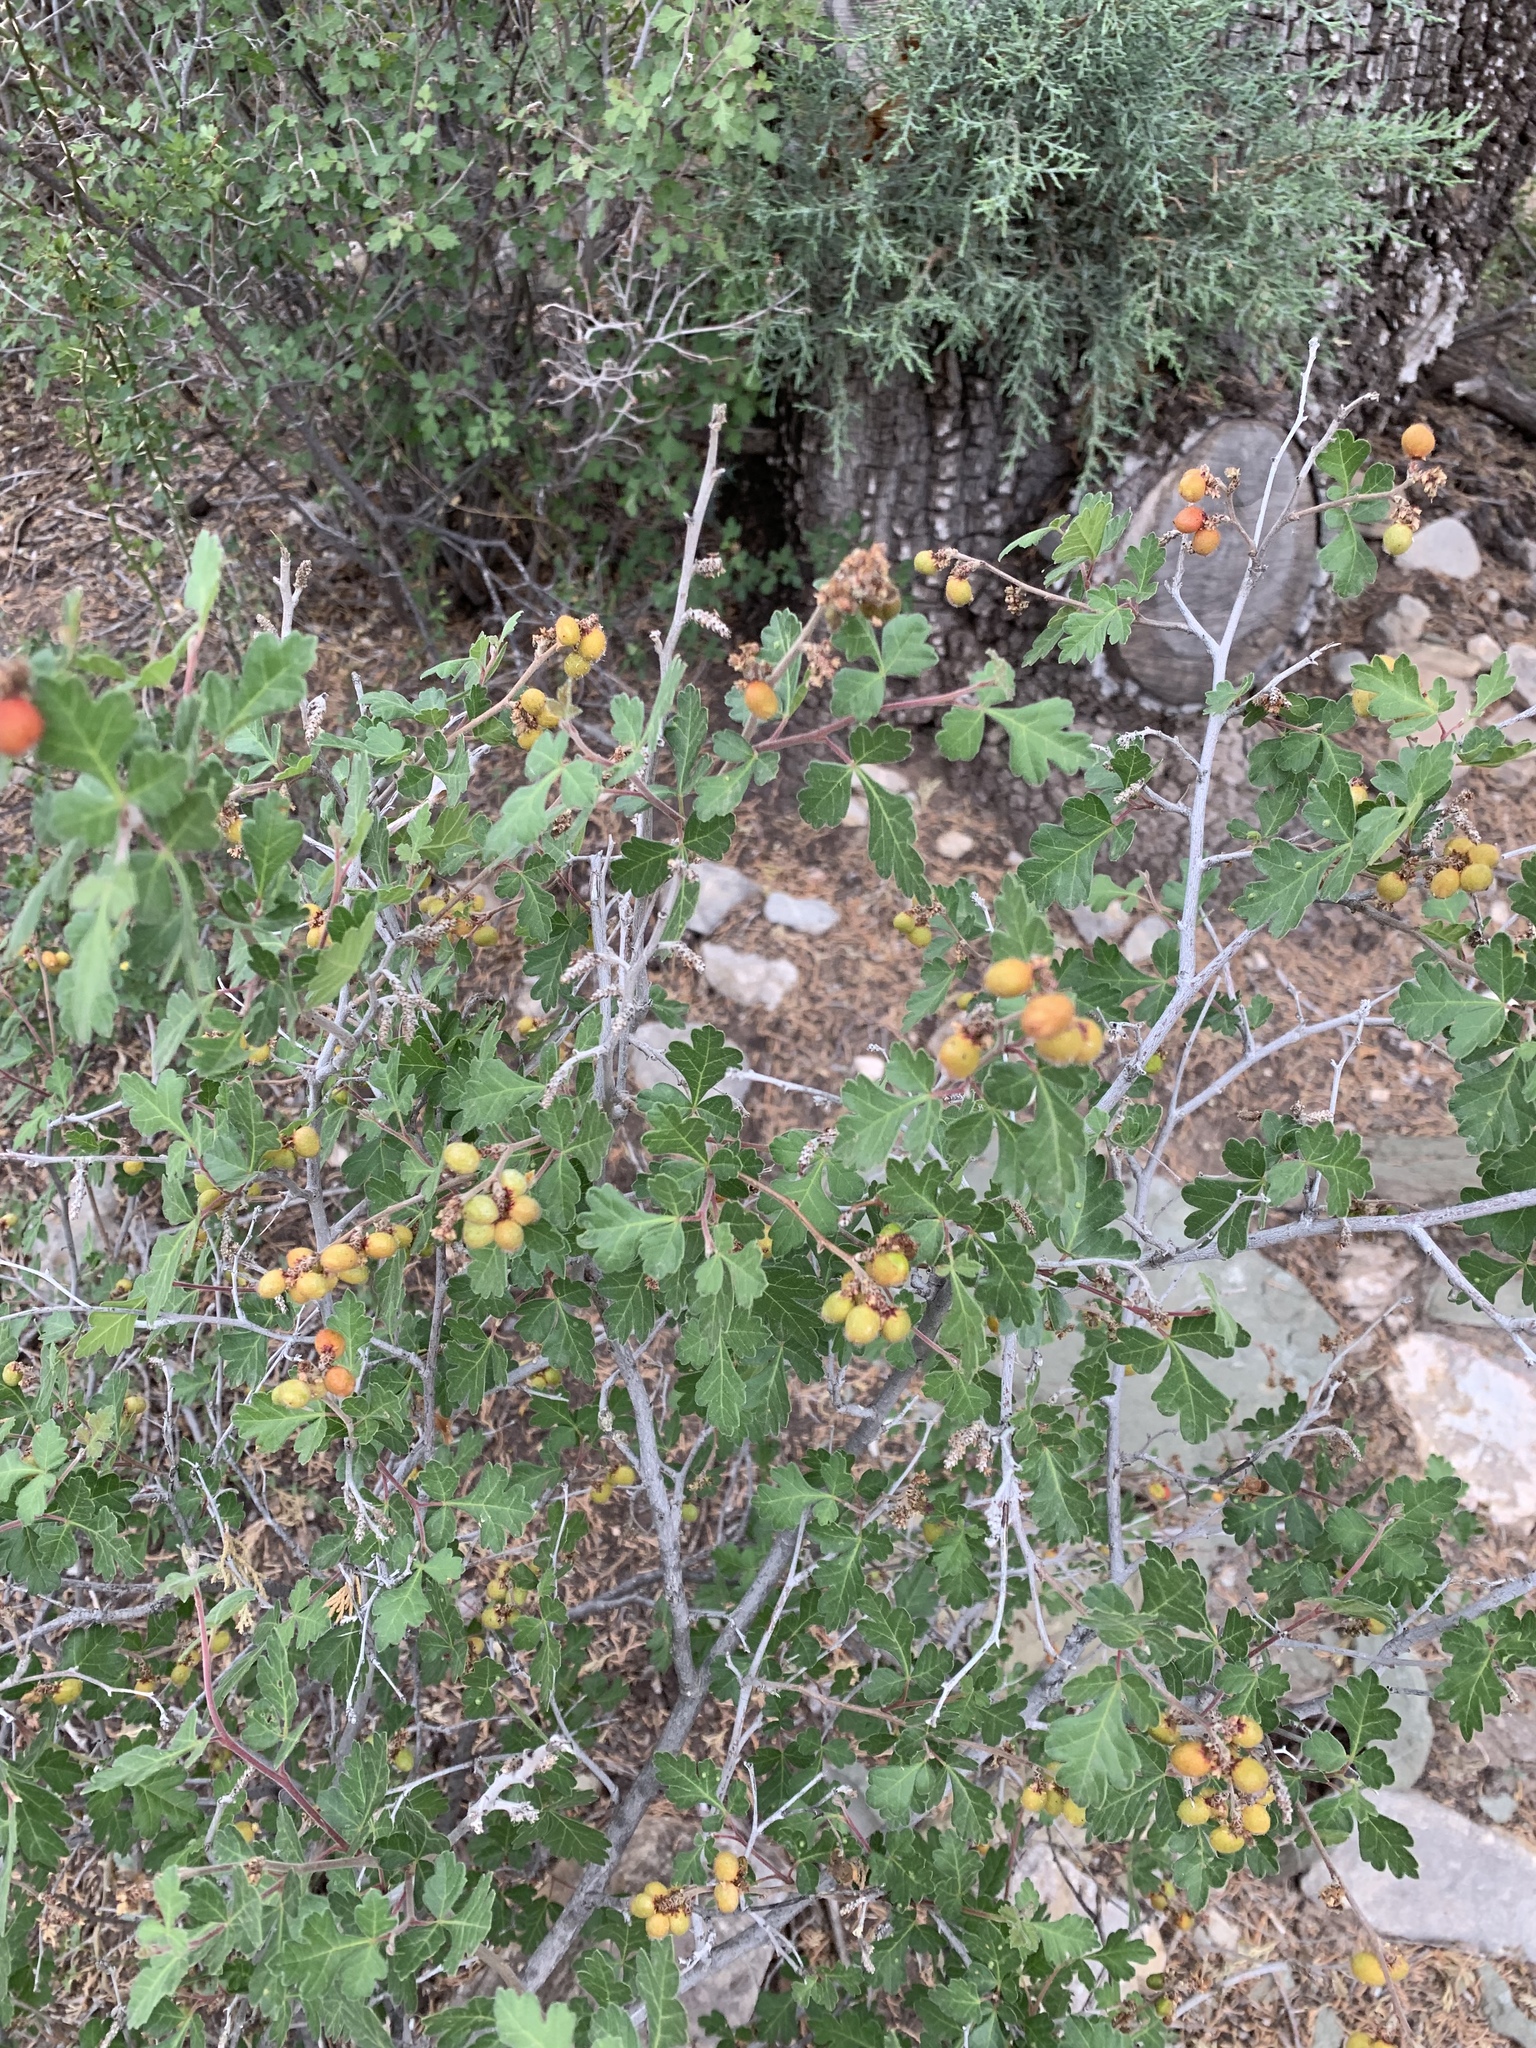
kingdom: Plantae
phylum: Tracheophyta
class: Magnoliopsida
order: Sapindales
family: Anacardiaceae
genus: Rhus
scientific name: Rhus aromatica
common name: Aromatic sumac
